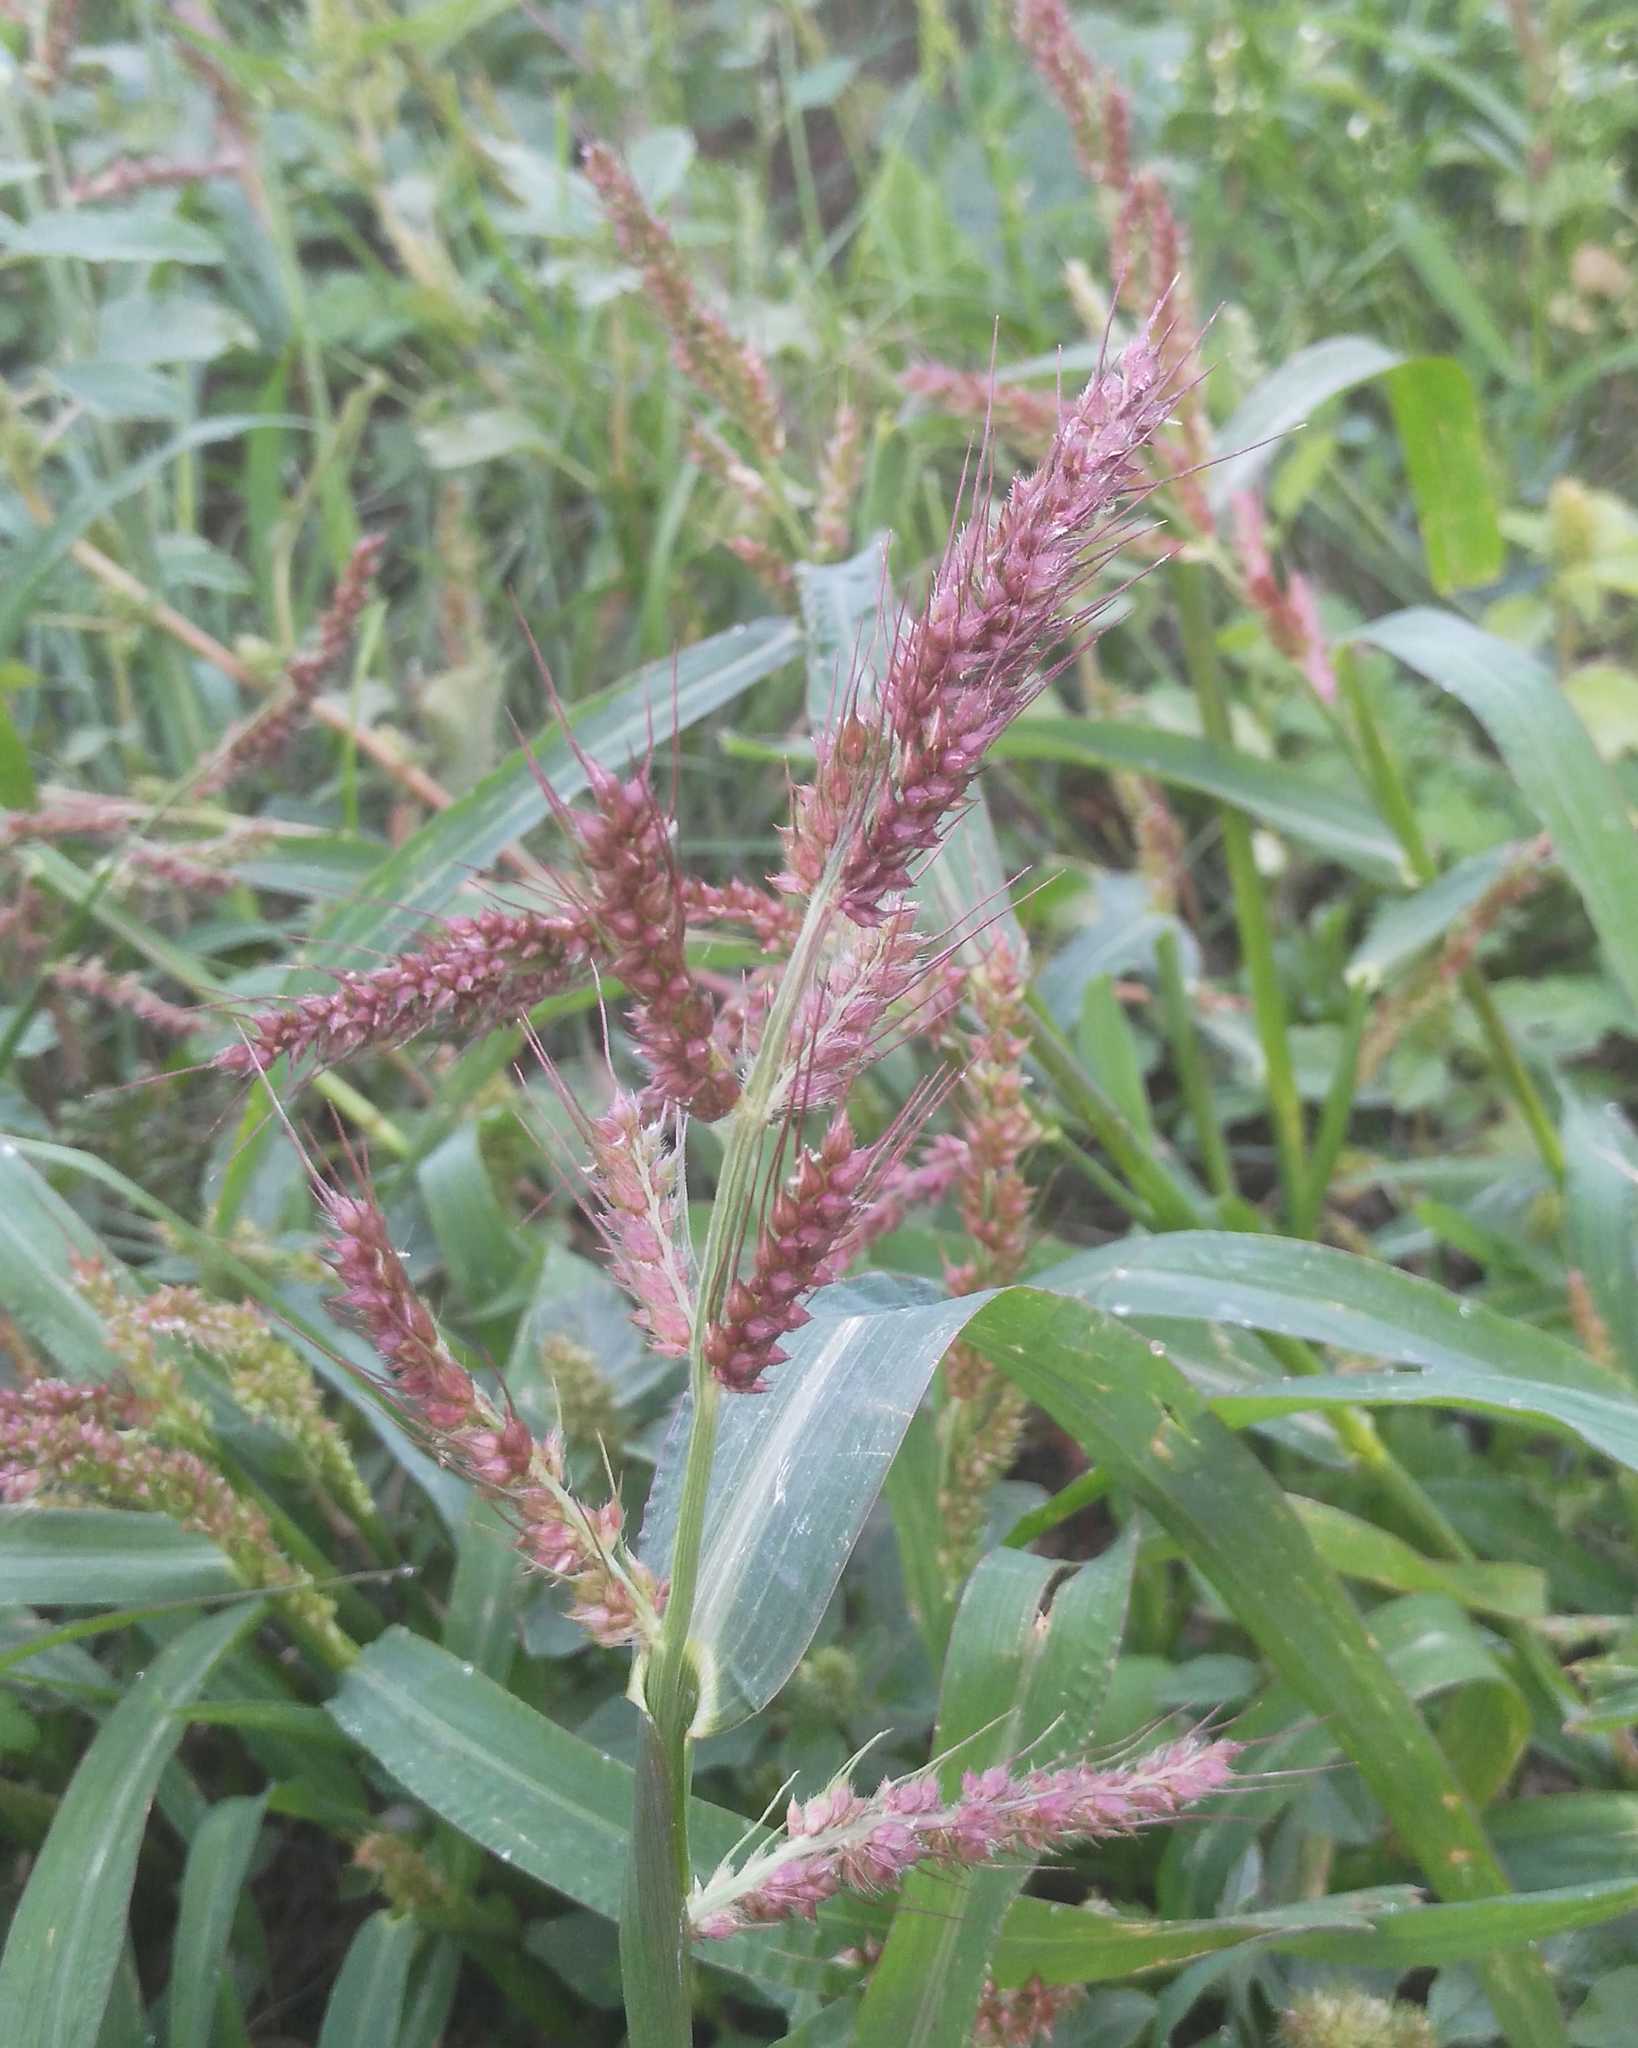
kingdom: Plantae
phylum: Tracheophyta
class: Liliopsida
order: Poales
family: Poaceae
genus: Echinochloa
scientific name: Echinochloa crus-galli
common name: Cockspur
